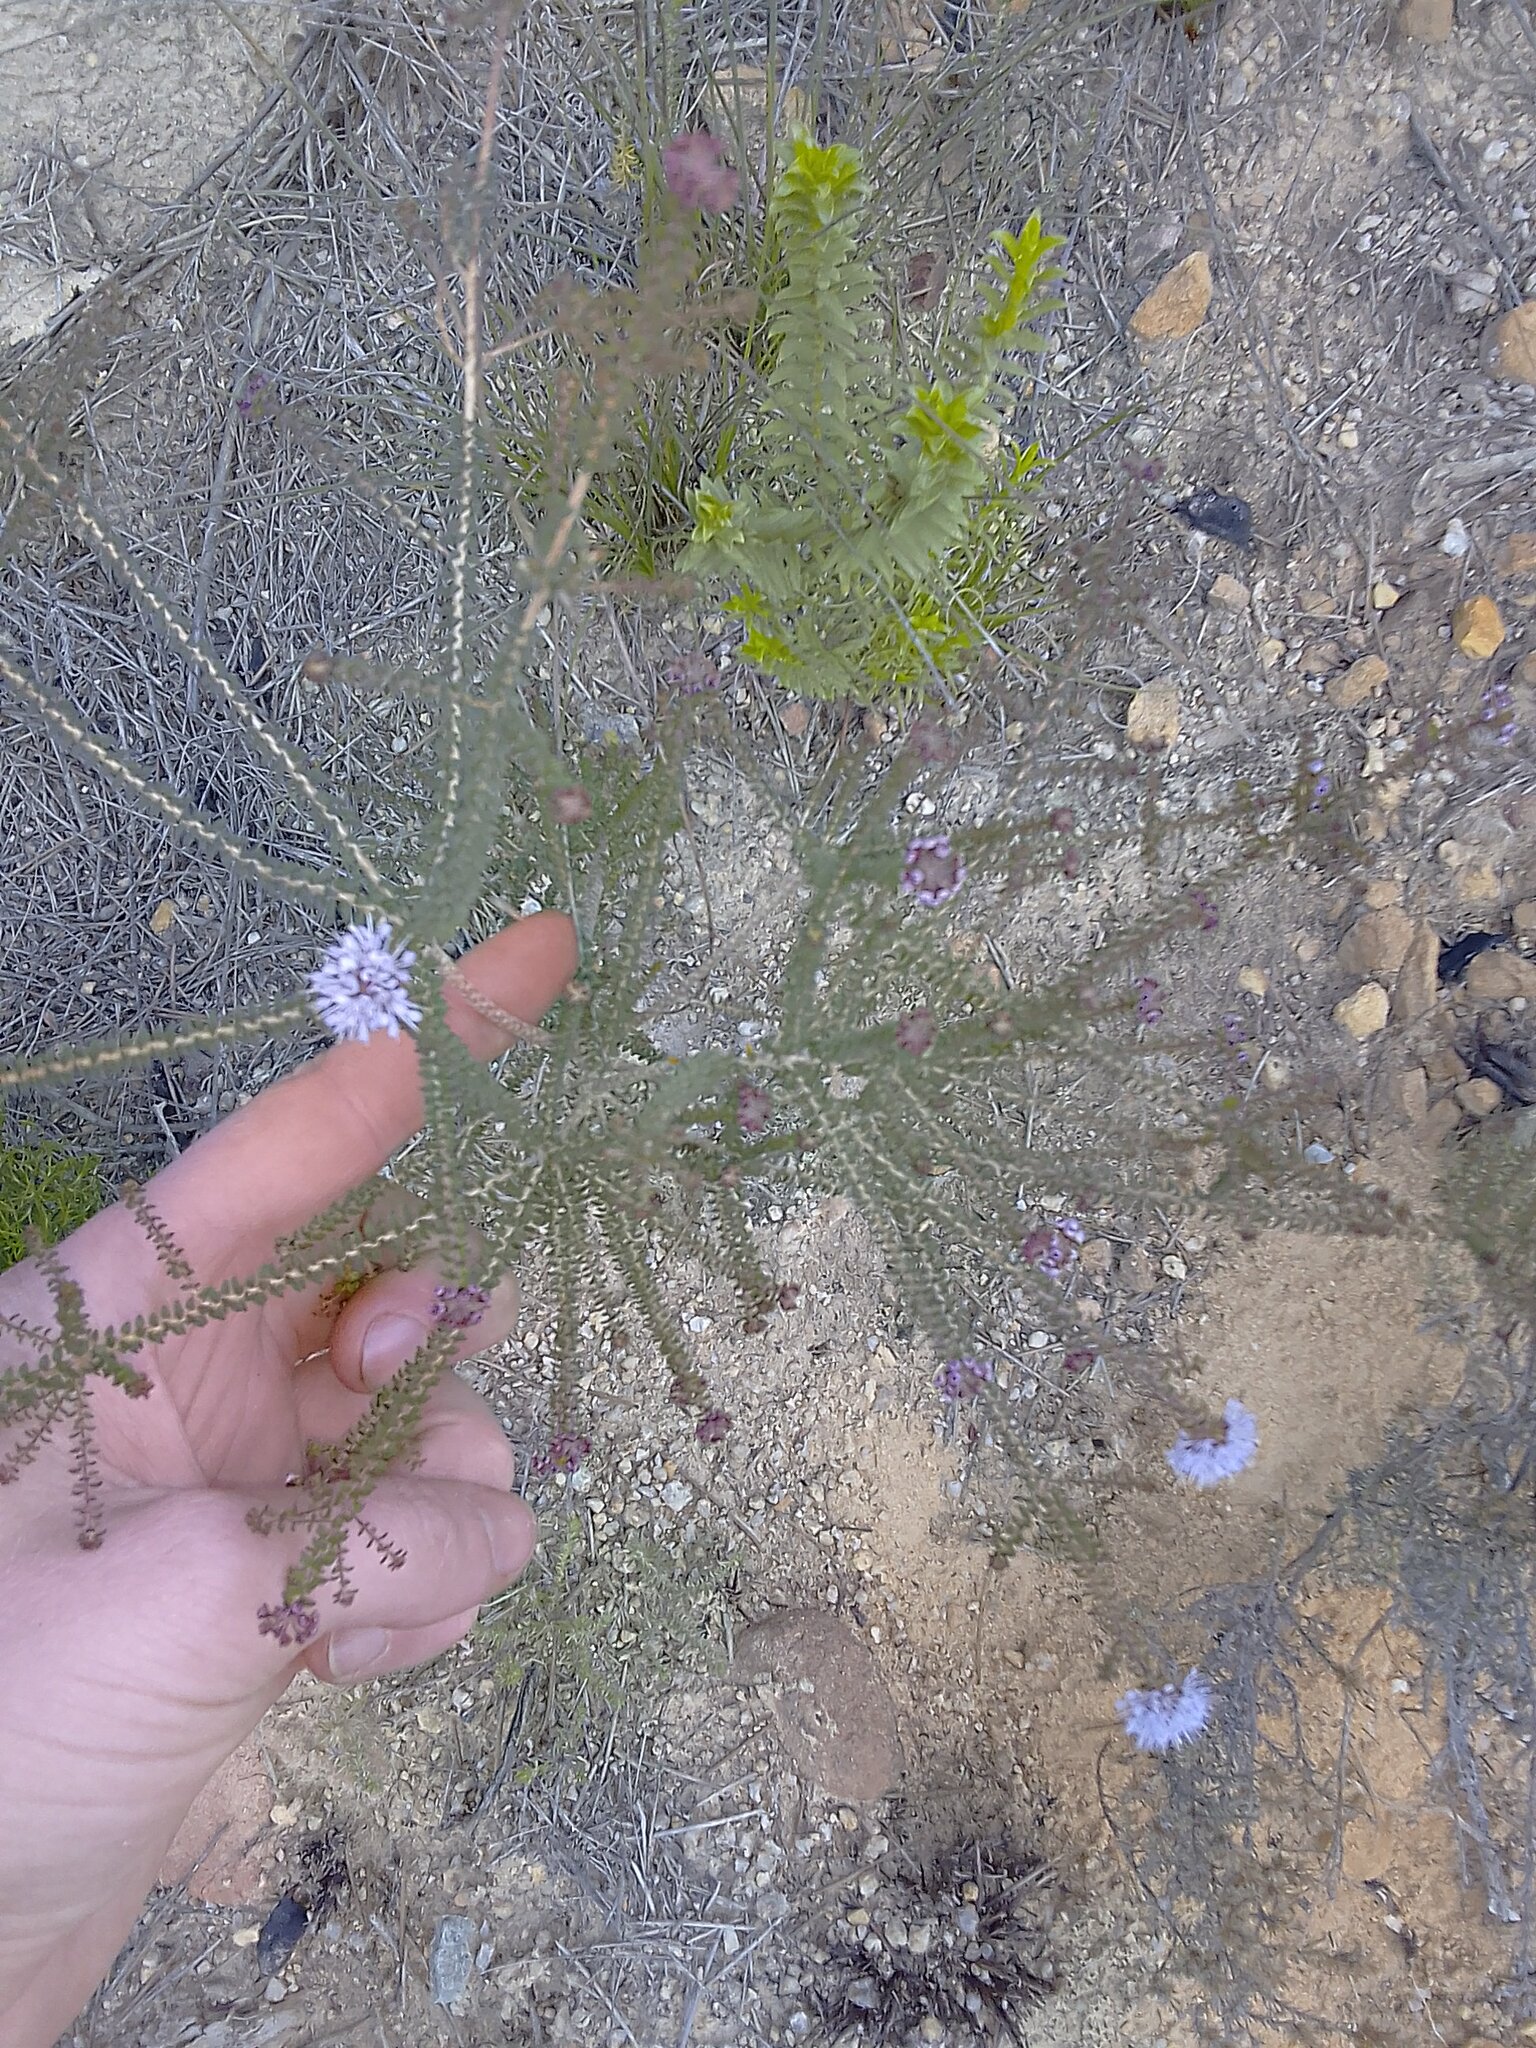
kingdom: Plantae
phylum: Tracheophyta
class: Magnoliopsida
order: Sapindales
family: Rutaceae
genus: Agathosma
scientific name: Agathosma capensis
